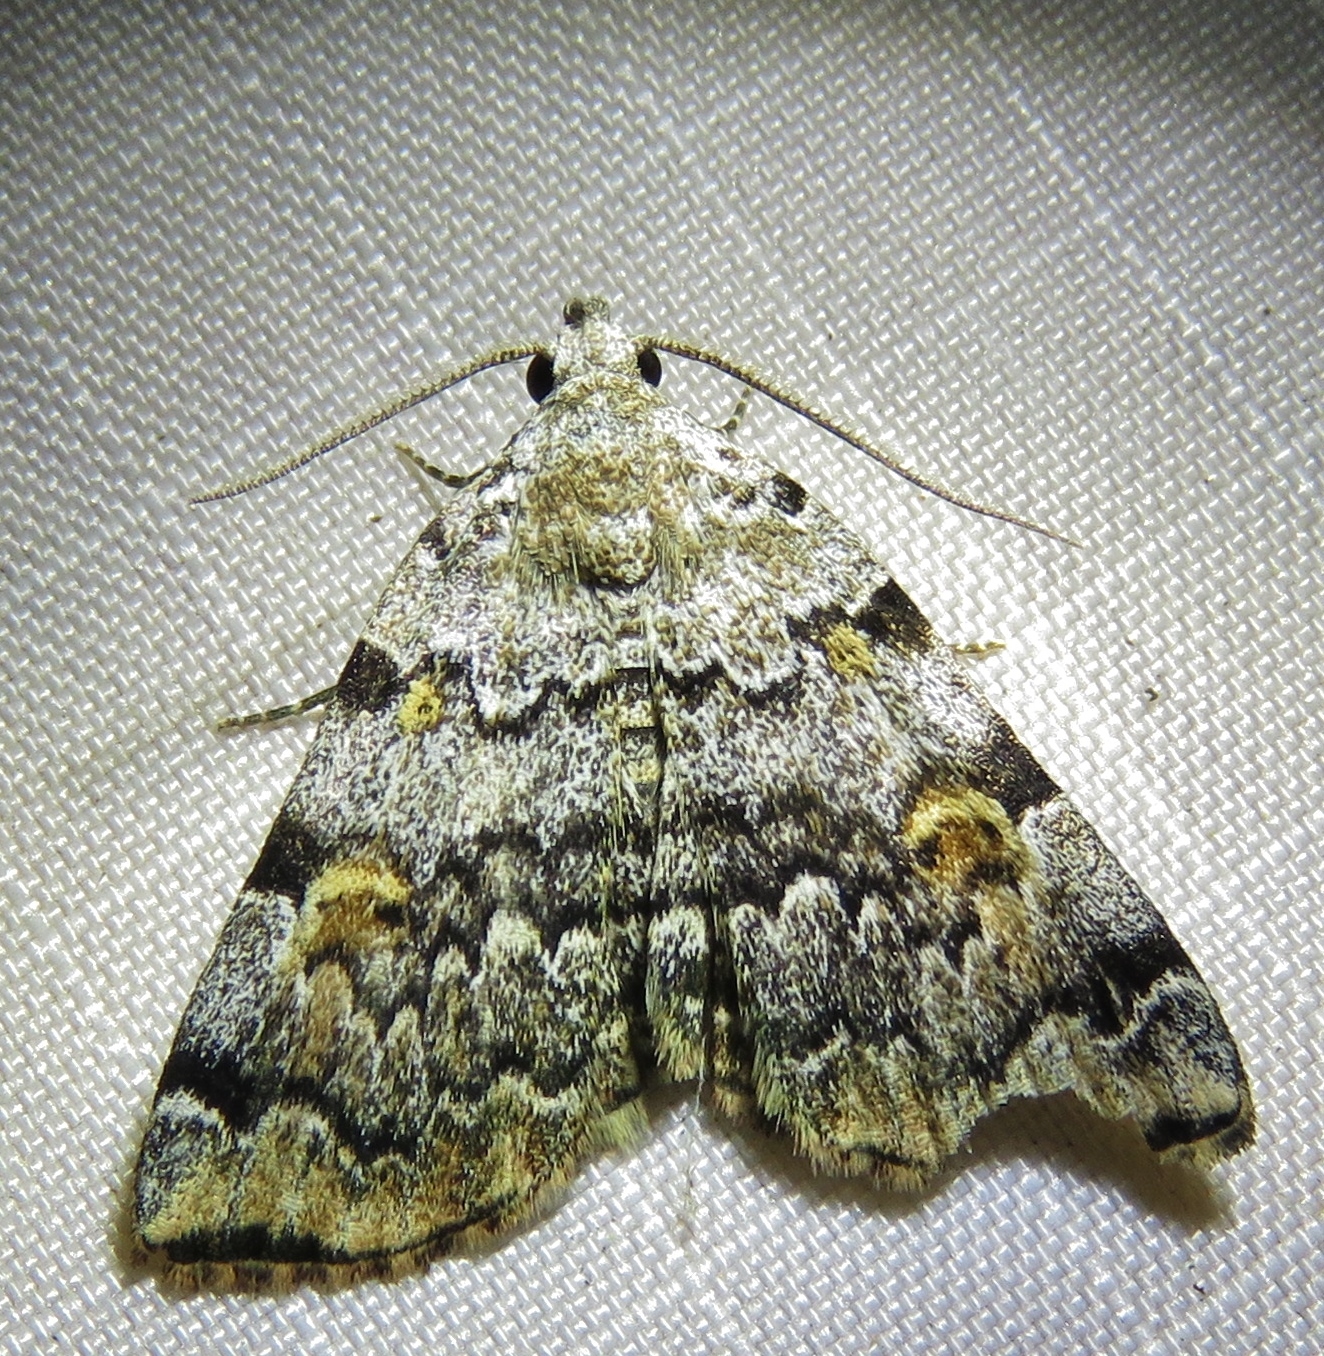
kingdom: Animalia
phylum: Arthropoda
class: Insecta
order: Lepidoptera
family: Erebidae
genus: Idia
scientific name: Idia americalis
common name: American idia moth
